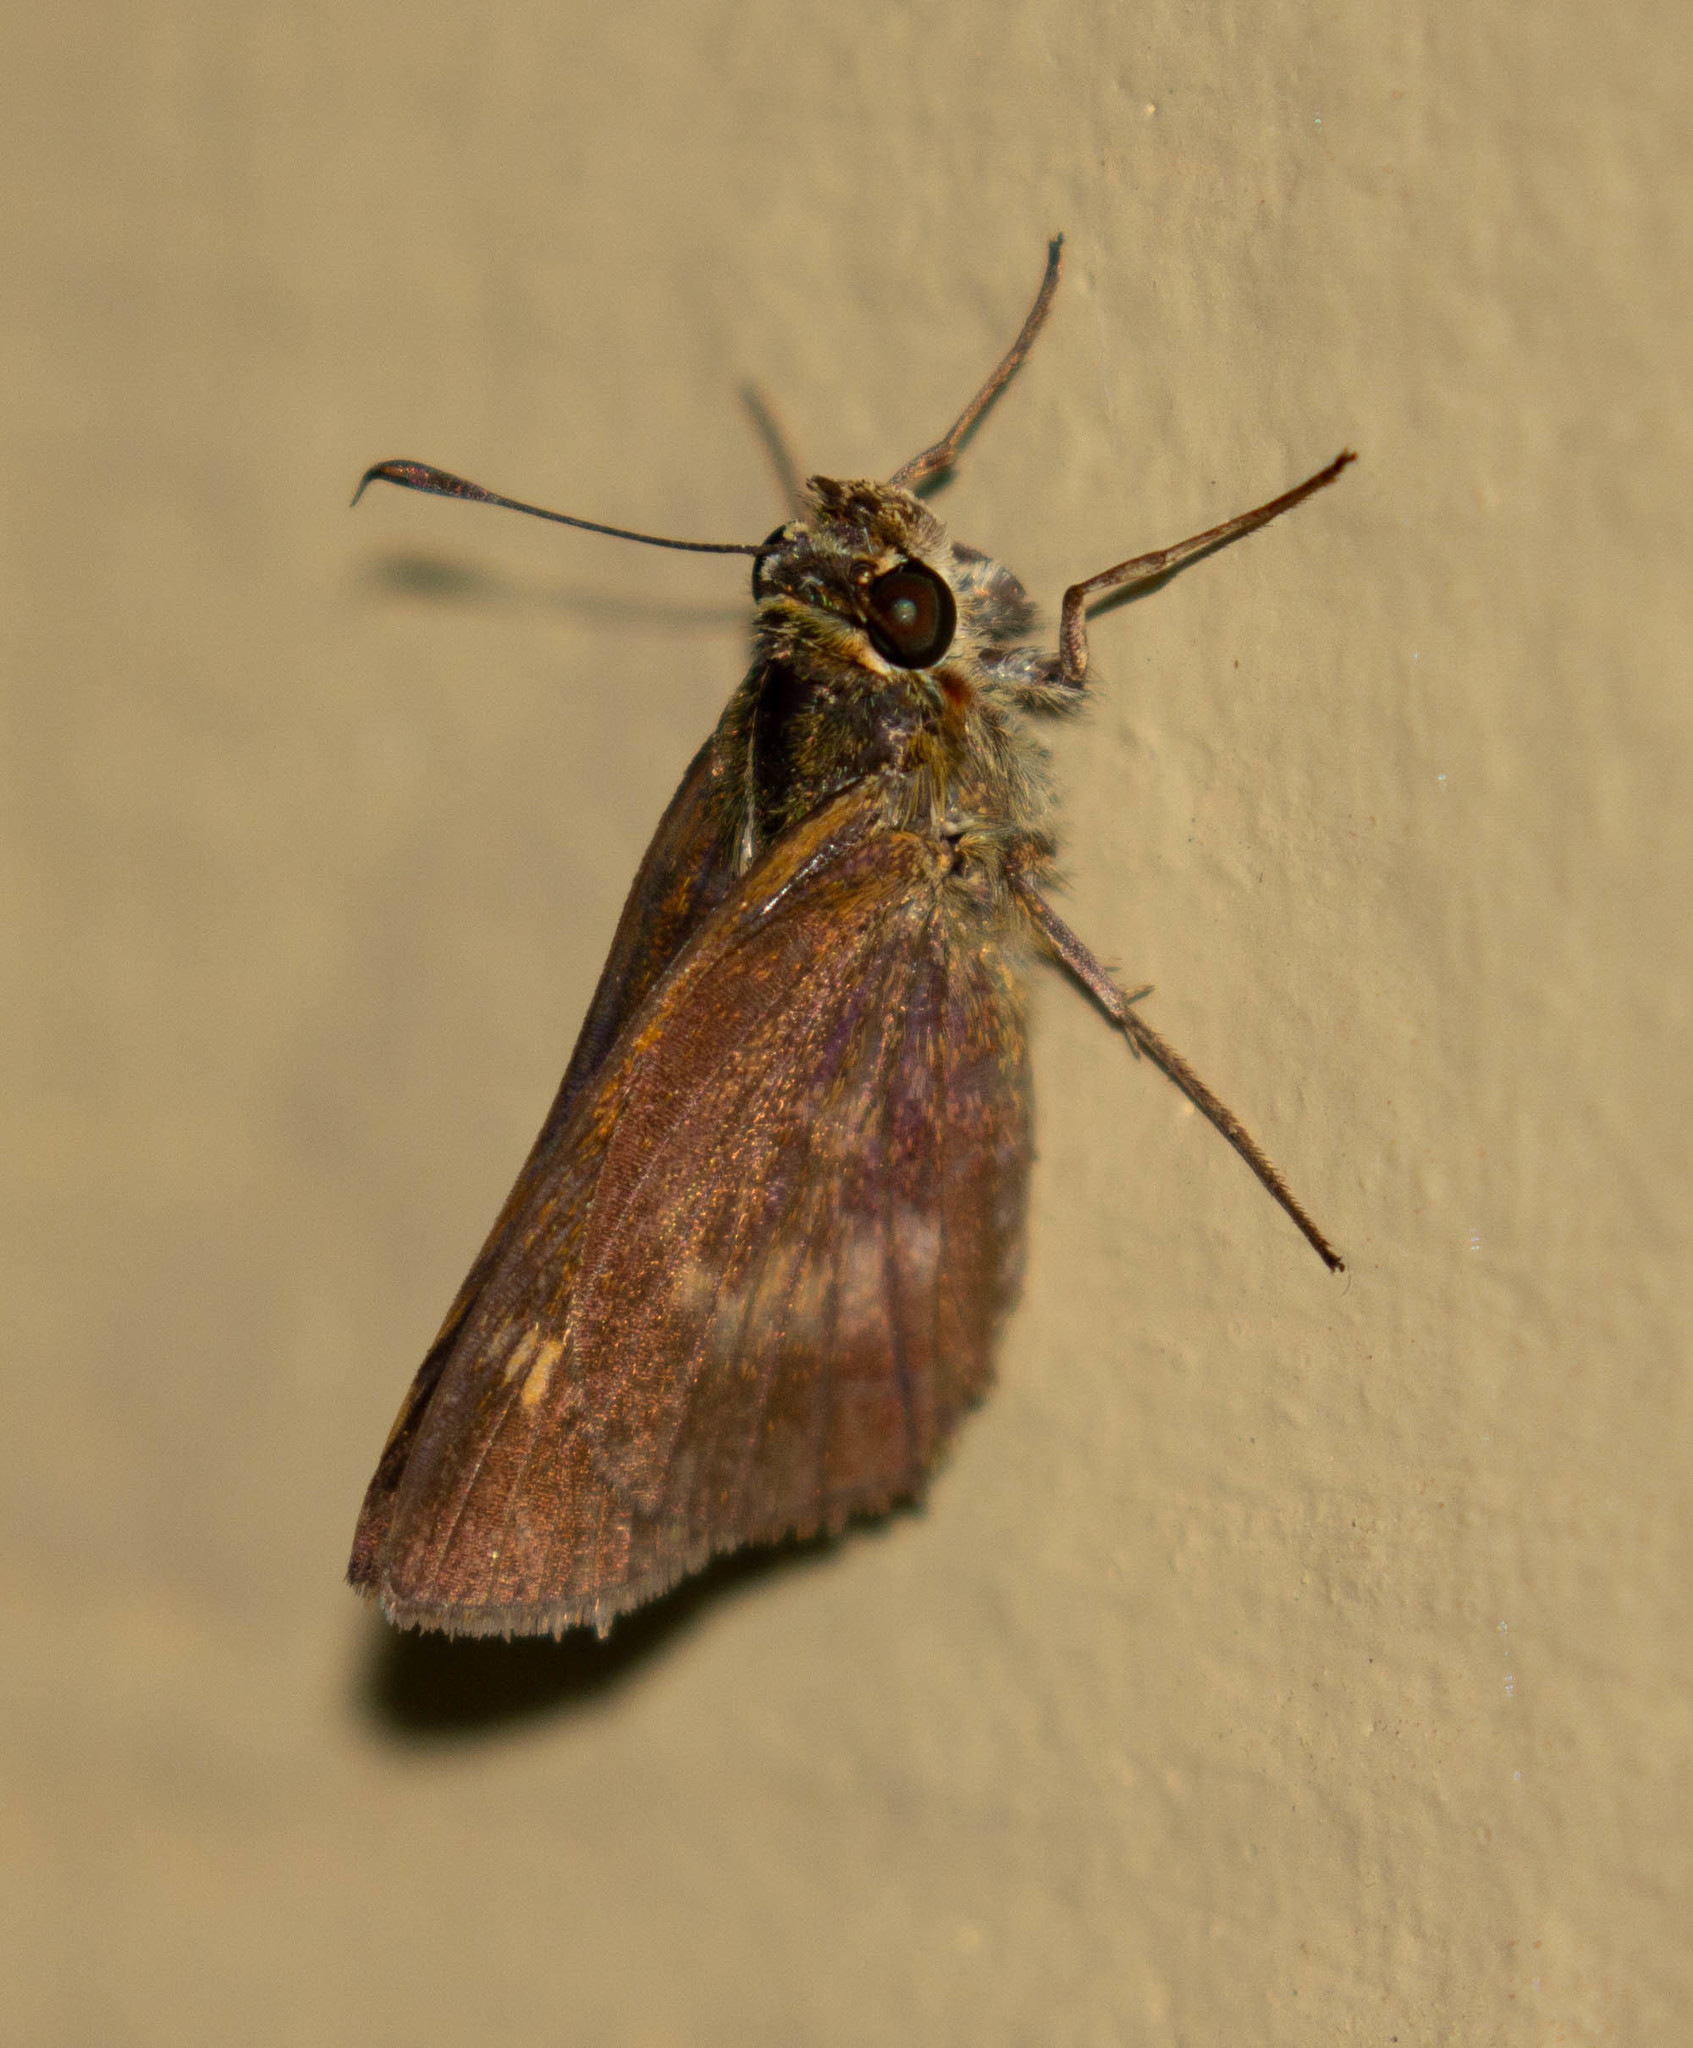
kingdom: Animalia
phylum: Arthropoda
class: Insecta
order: Lepidoptera
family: Hesperiidae
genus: Polites
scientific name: Polites egeremet
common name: Northern broken-dash
